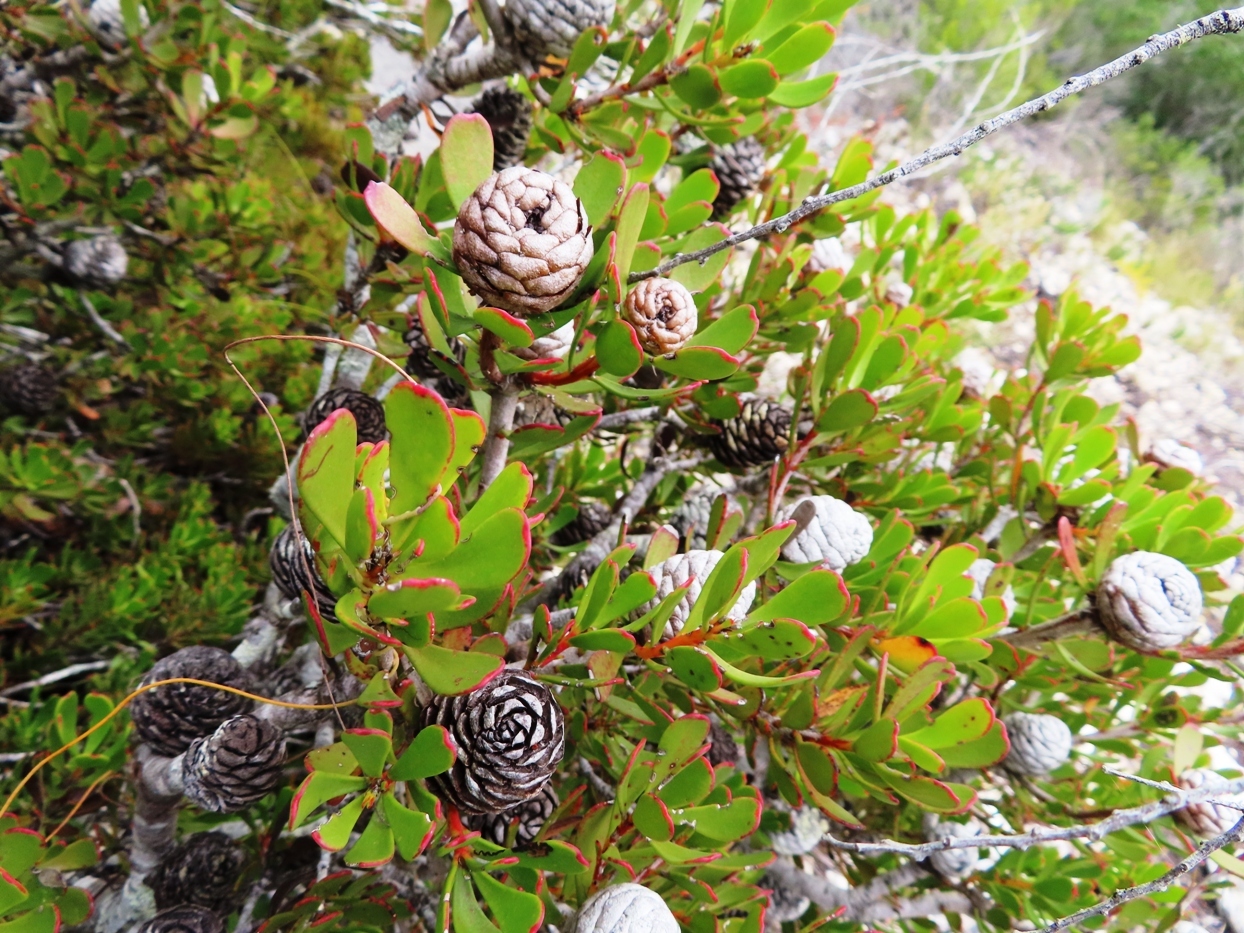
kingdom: Plantae
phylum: Tracheophyta
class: Magnoliopsida
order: Proteales
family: Proteaceae
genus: Leucadendron
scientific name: Leucadendron muirii
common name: Silver-ball conebush
